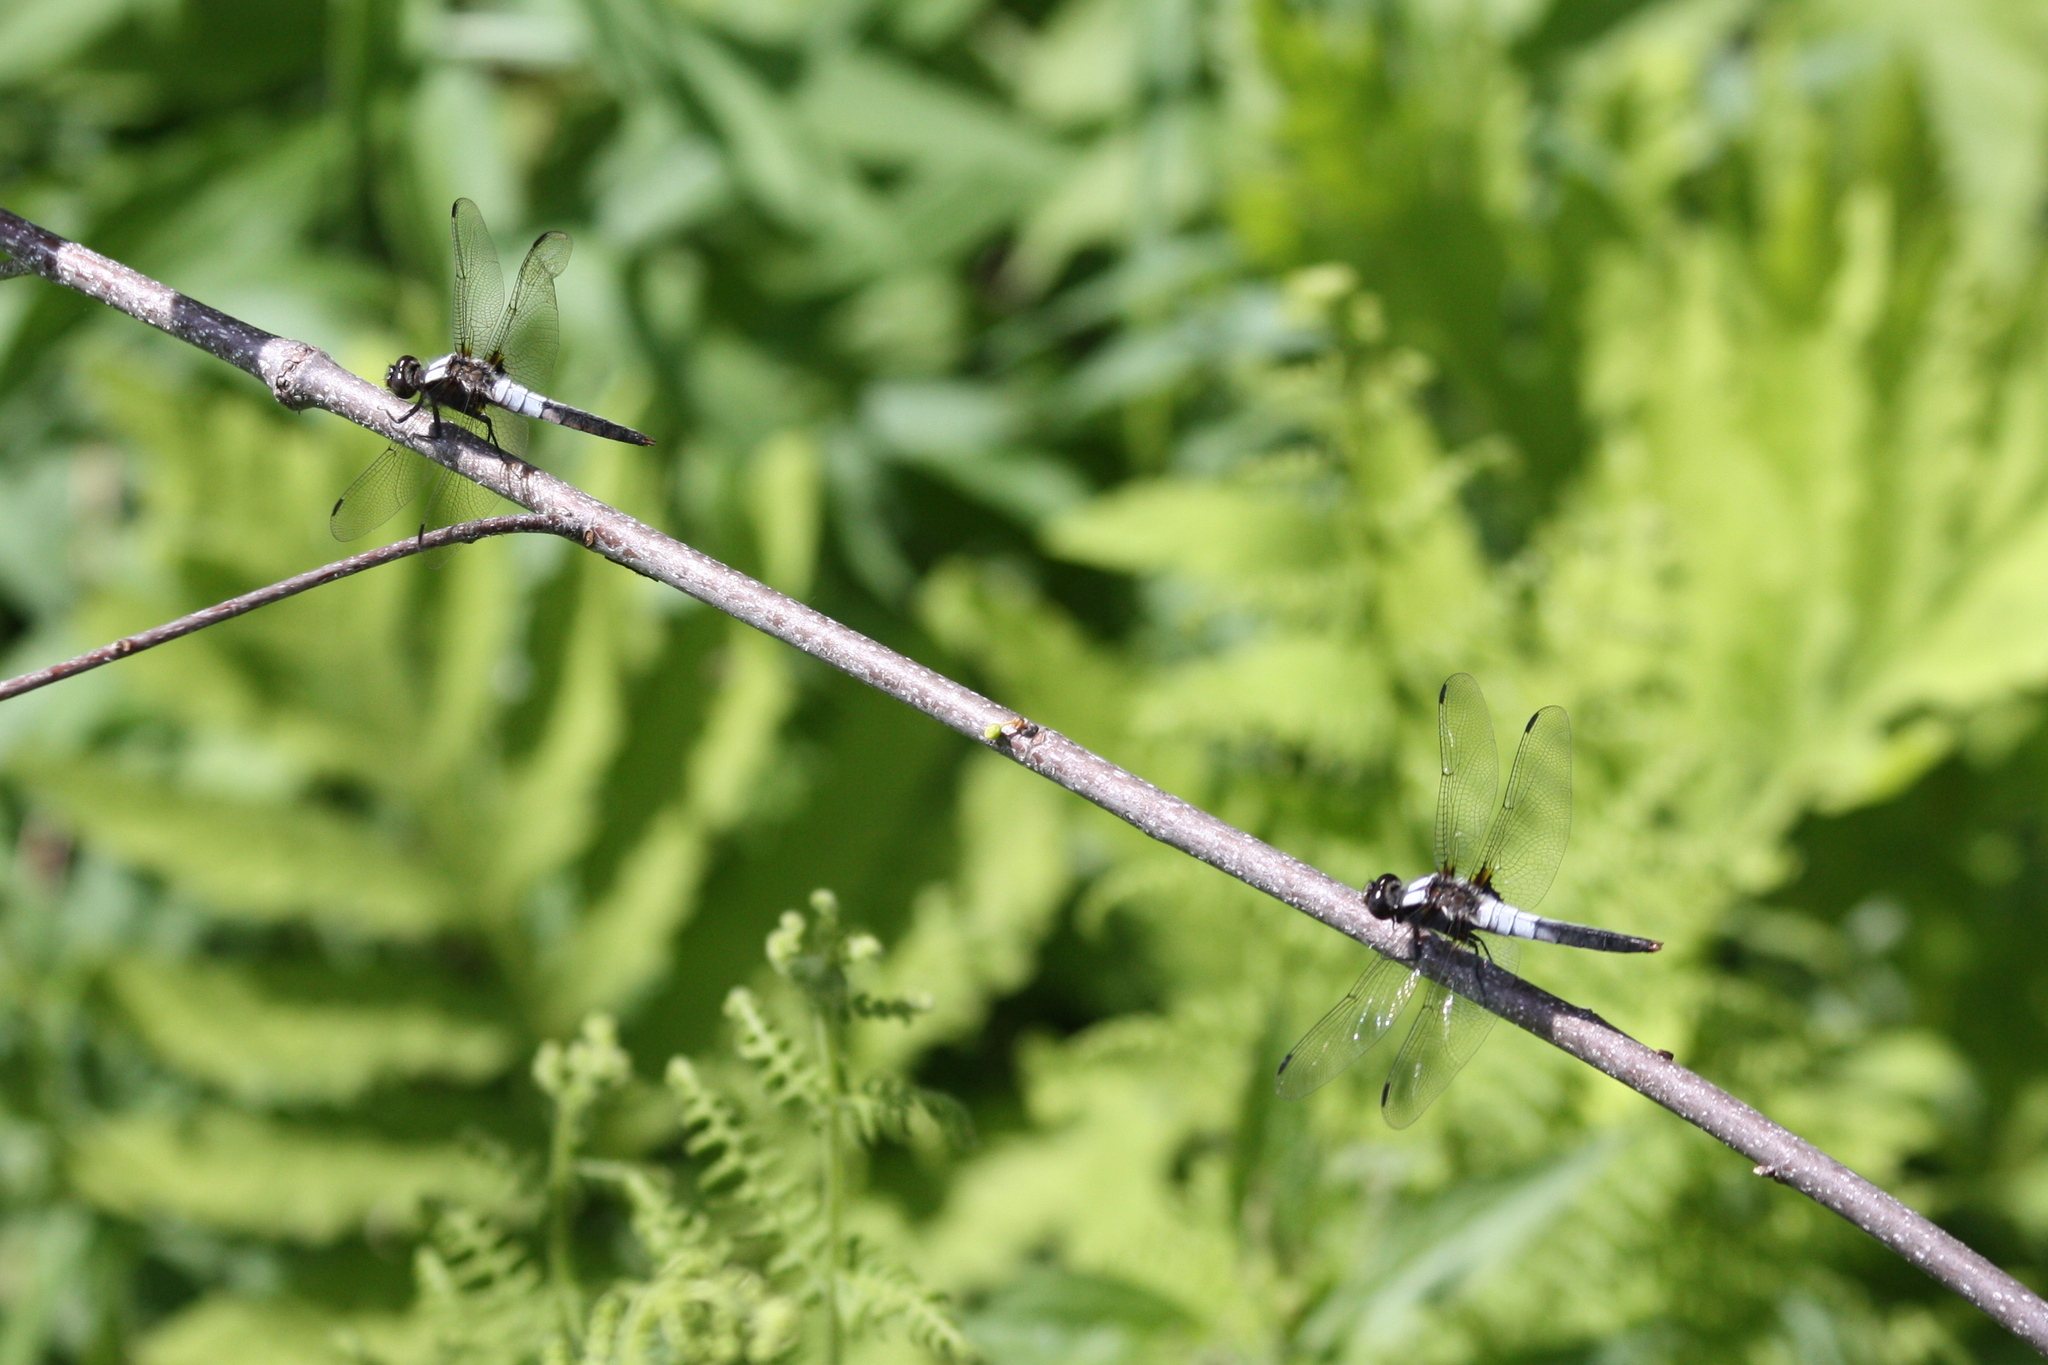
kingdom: Animalia
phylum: Arthropoda
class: Insecta
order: Odonata
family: Libellulidae
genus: Ladona
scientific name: Ladona julia
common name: Chalk-fronted corporal
